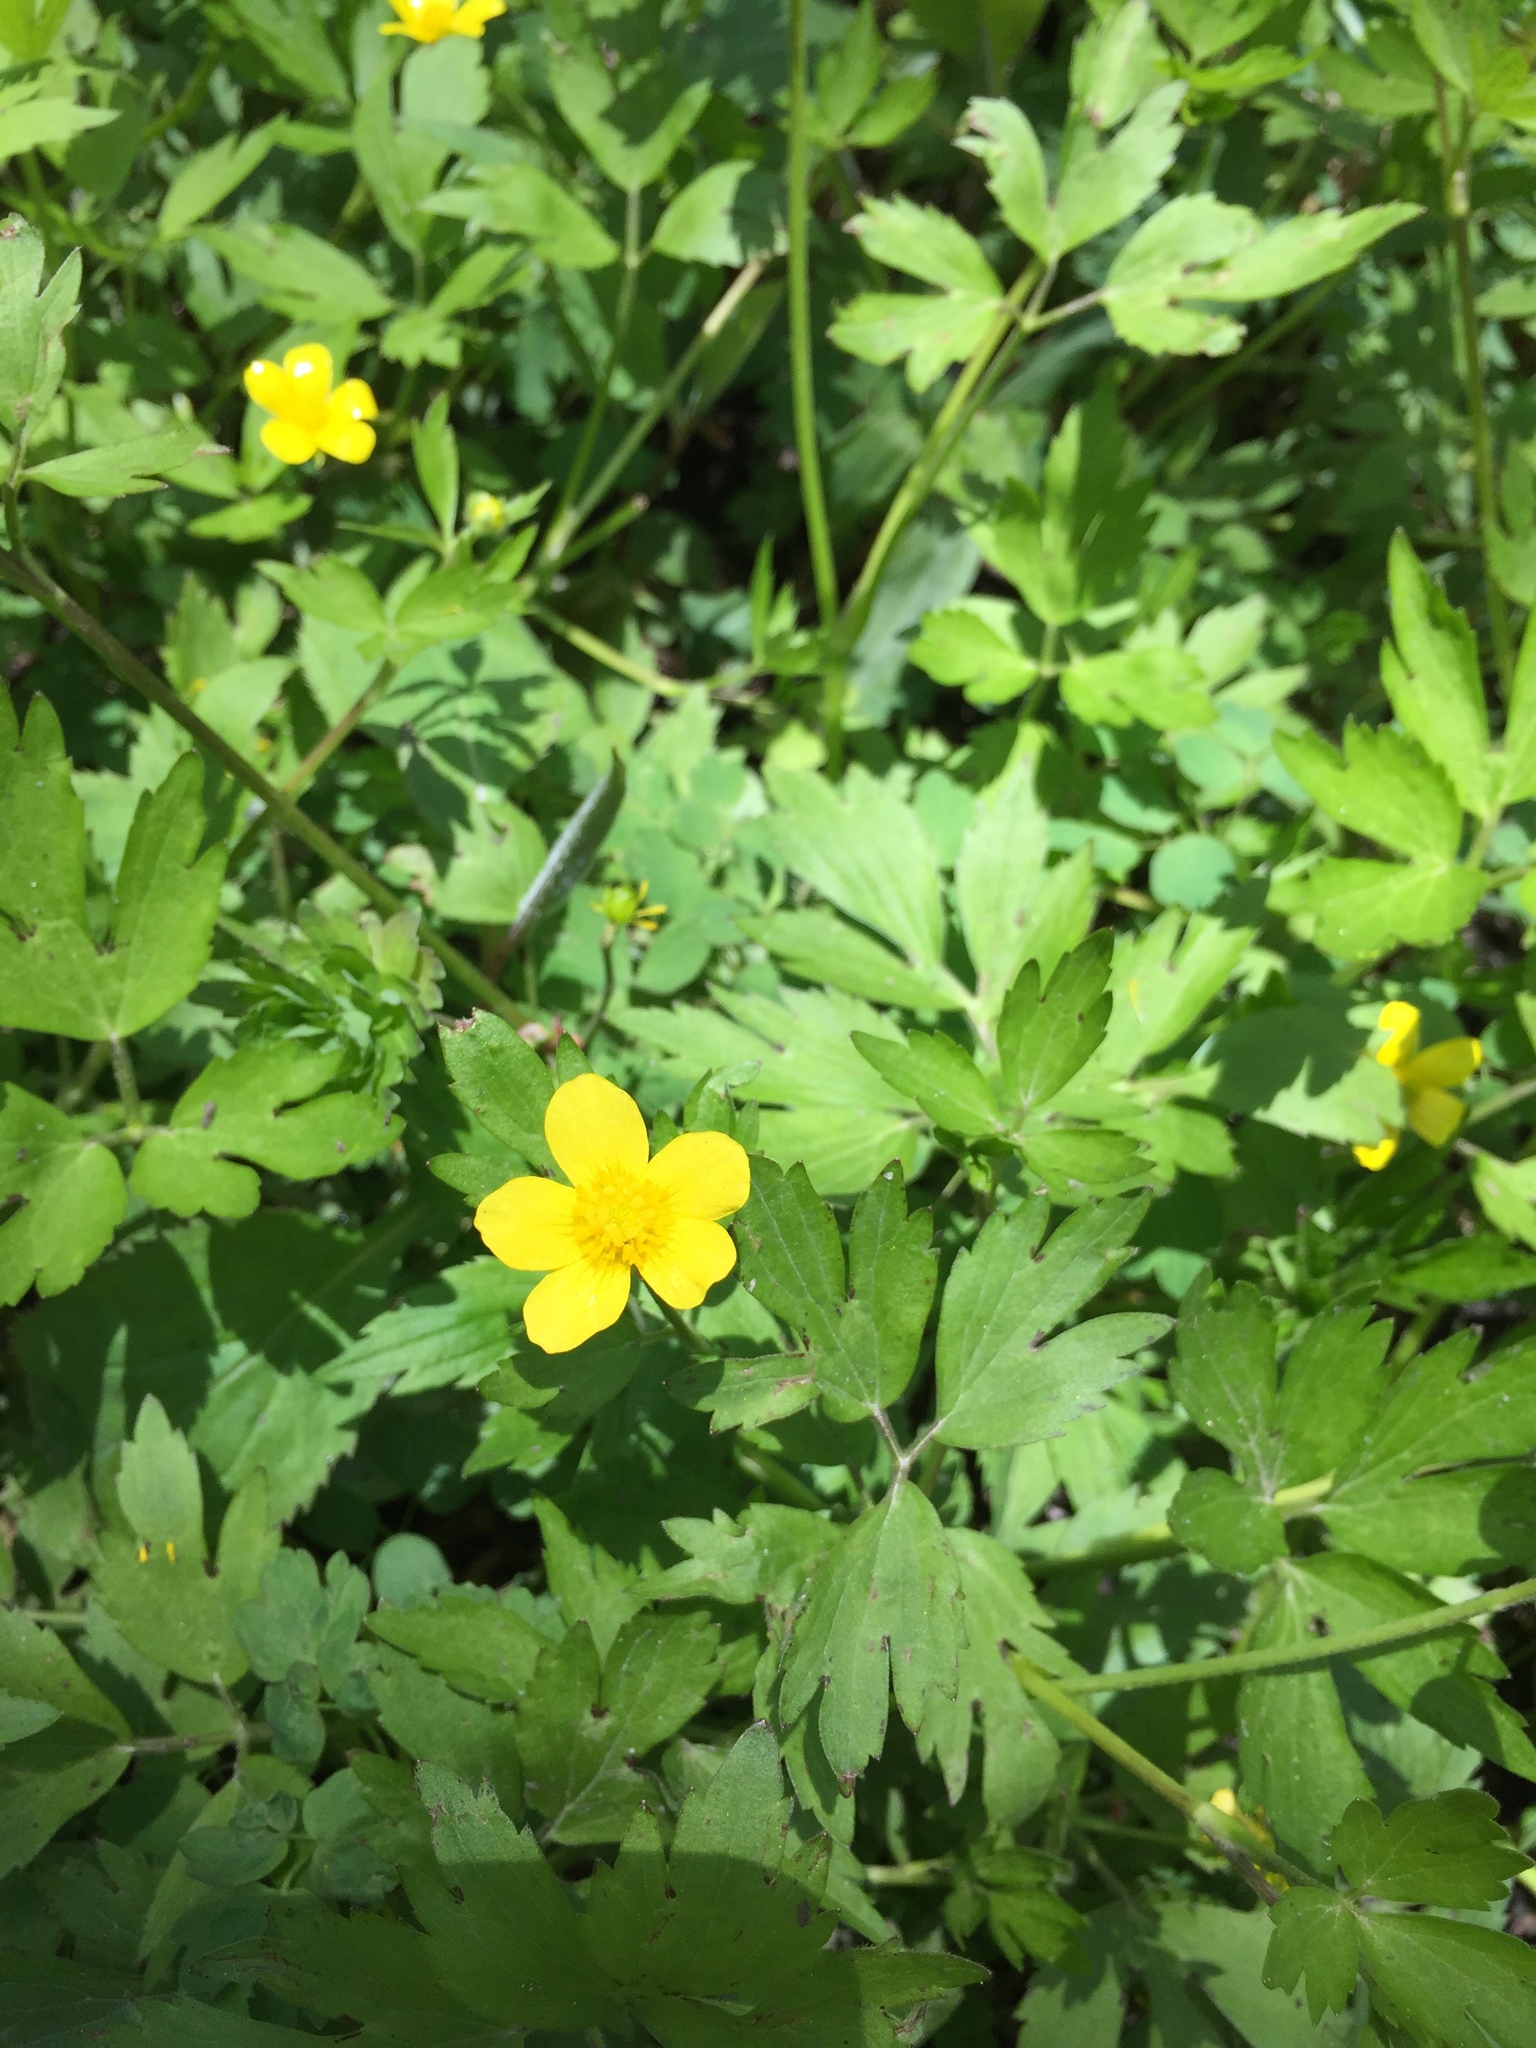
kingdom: Plantae
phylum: Tracheophyta
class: Magnoliopsida
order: Ranunculales
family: Ranunculaceae
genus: Ranunculus
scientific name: Ranunculus hispidus
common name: Bristly buttercup
